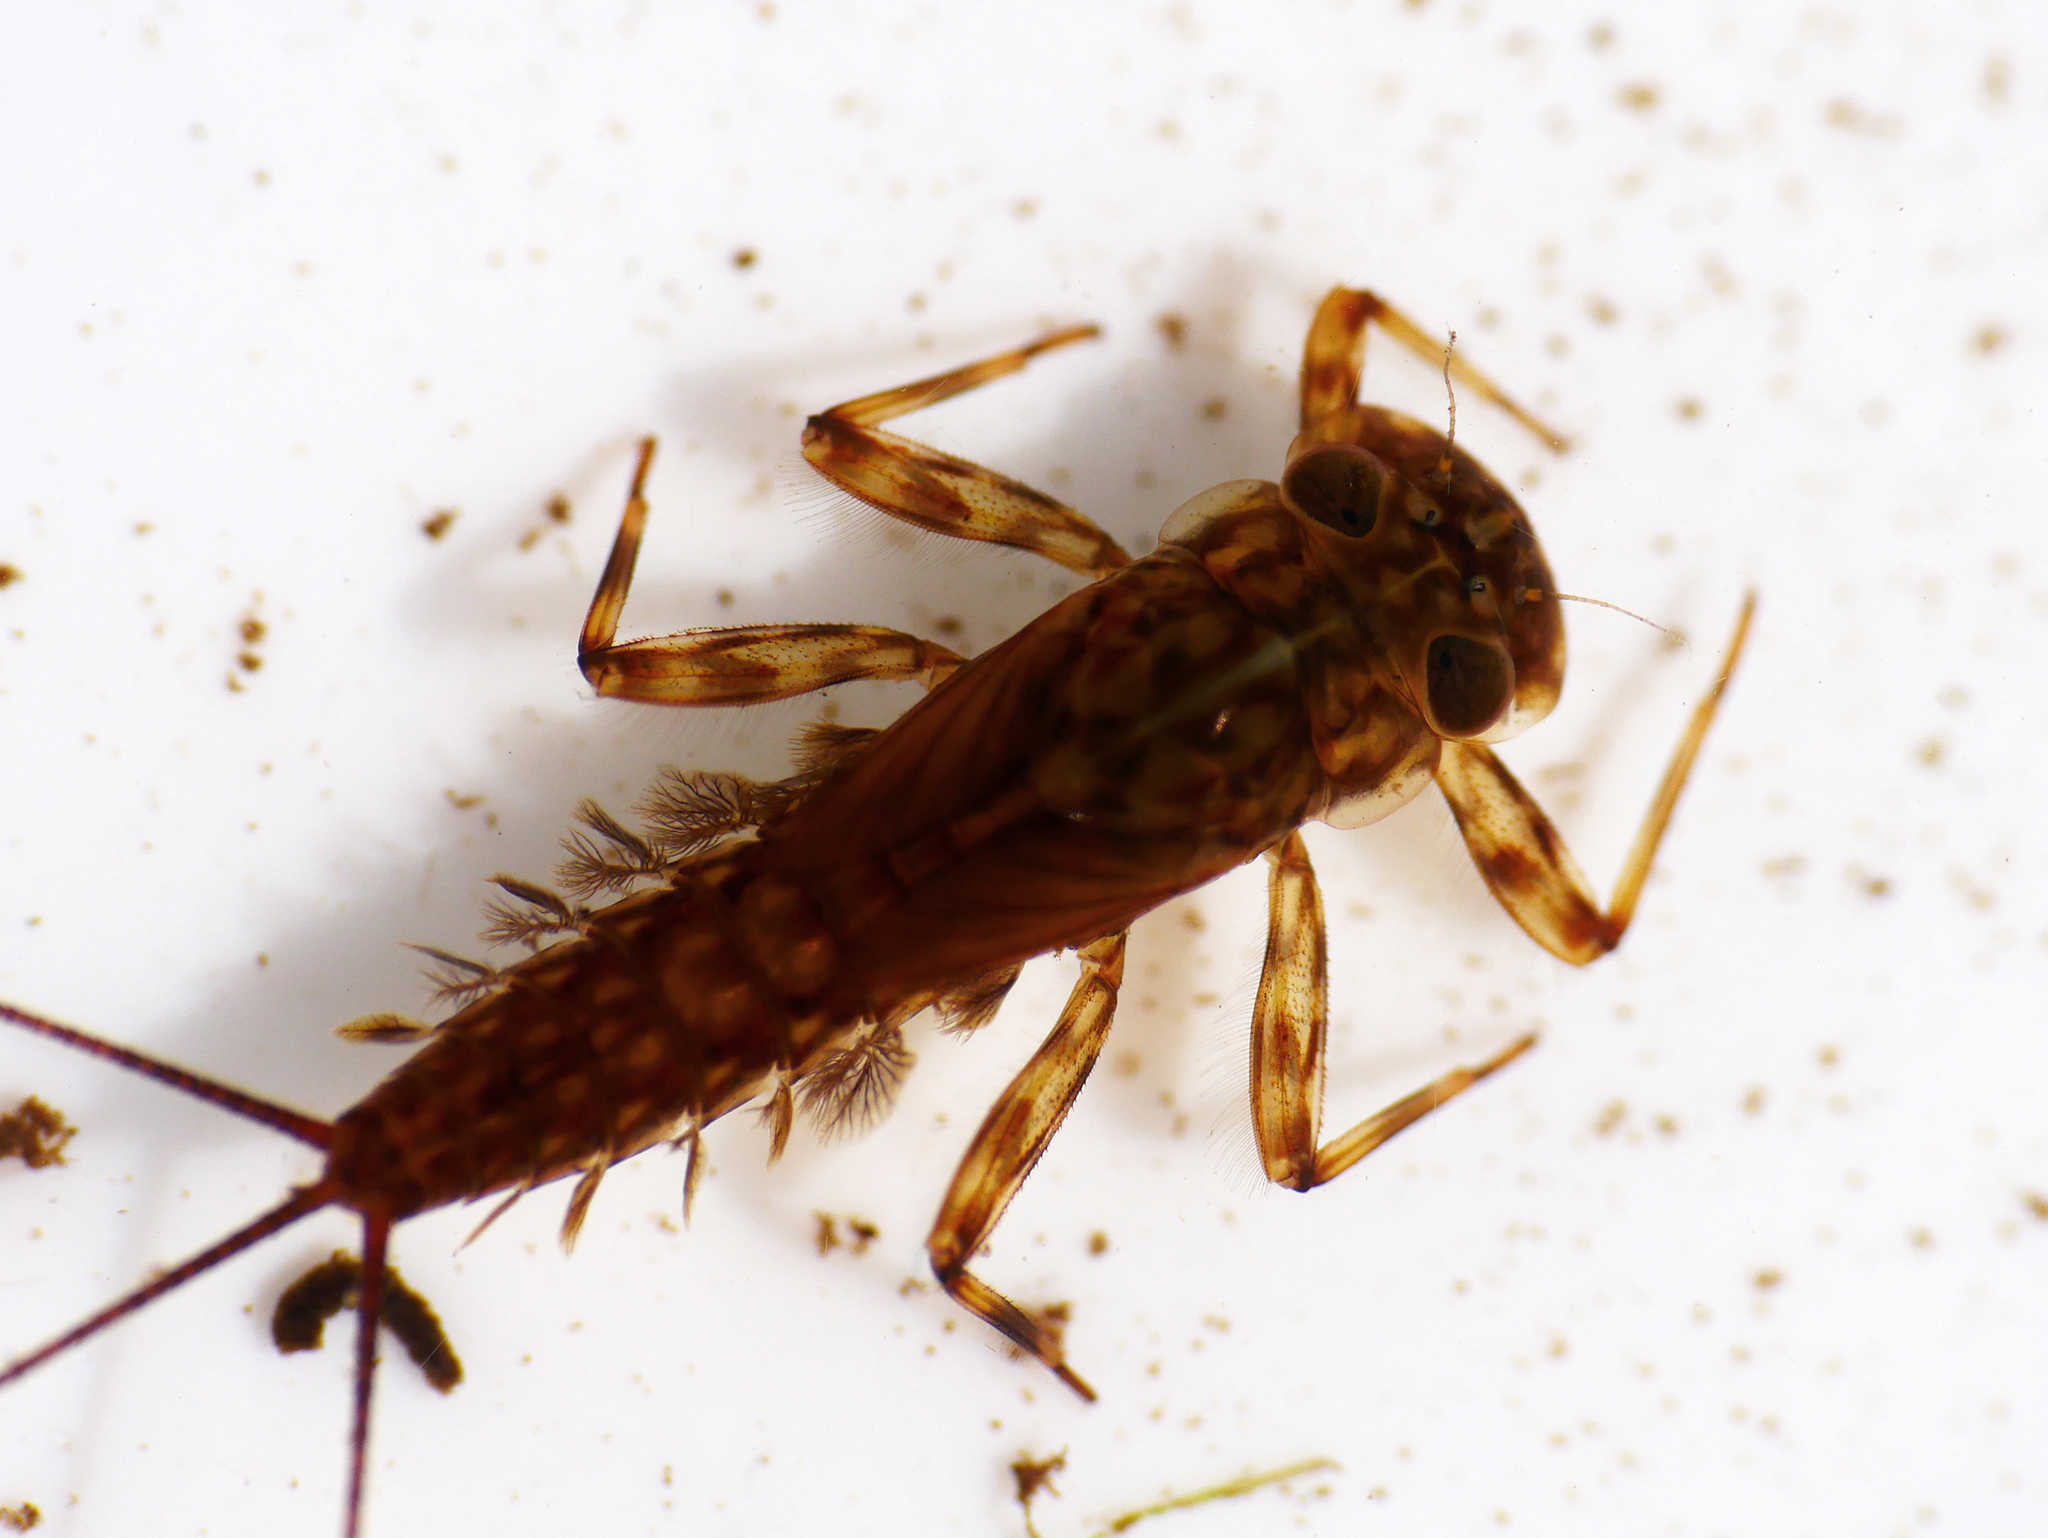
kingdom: Animalia
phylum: Arthropoda
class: Insecta
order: Ephemeroptera
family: Heptageniidae
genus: Electrogena
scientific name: Electrogena affinis
